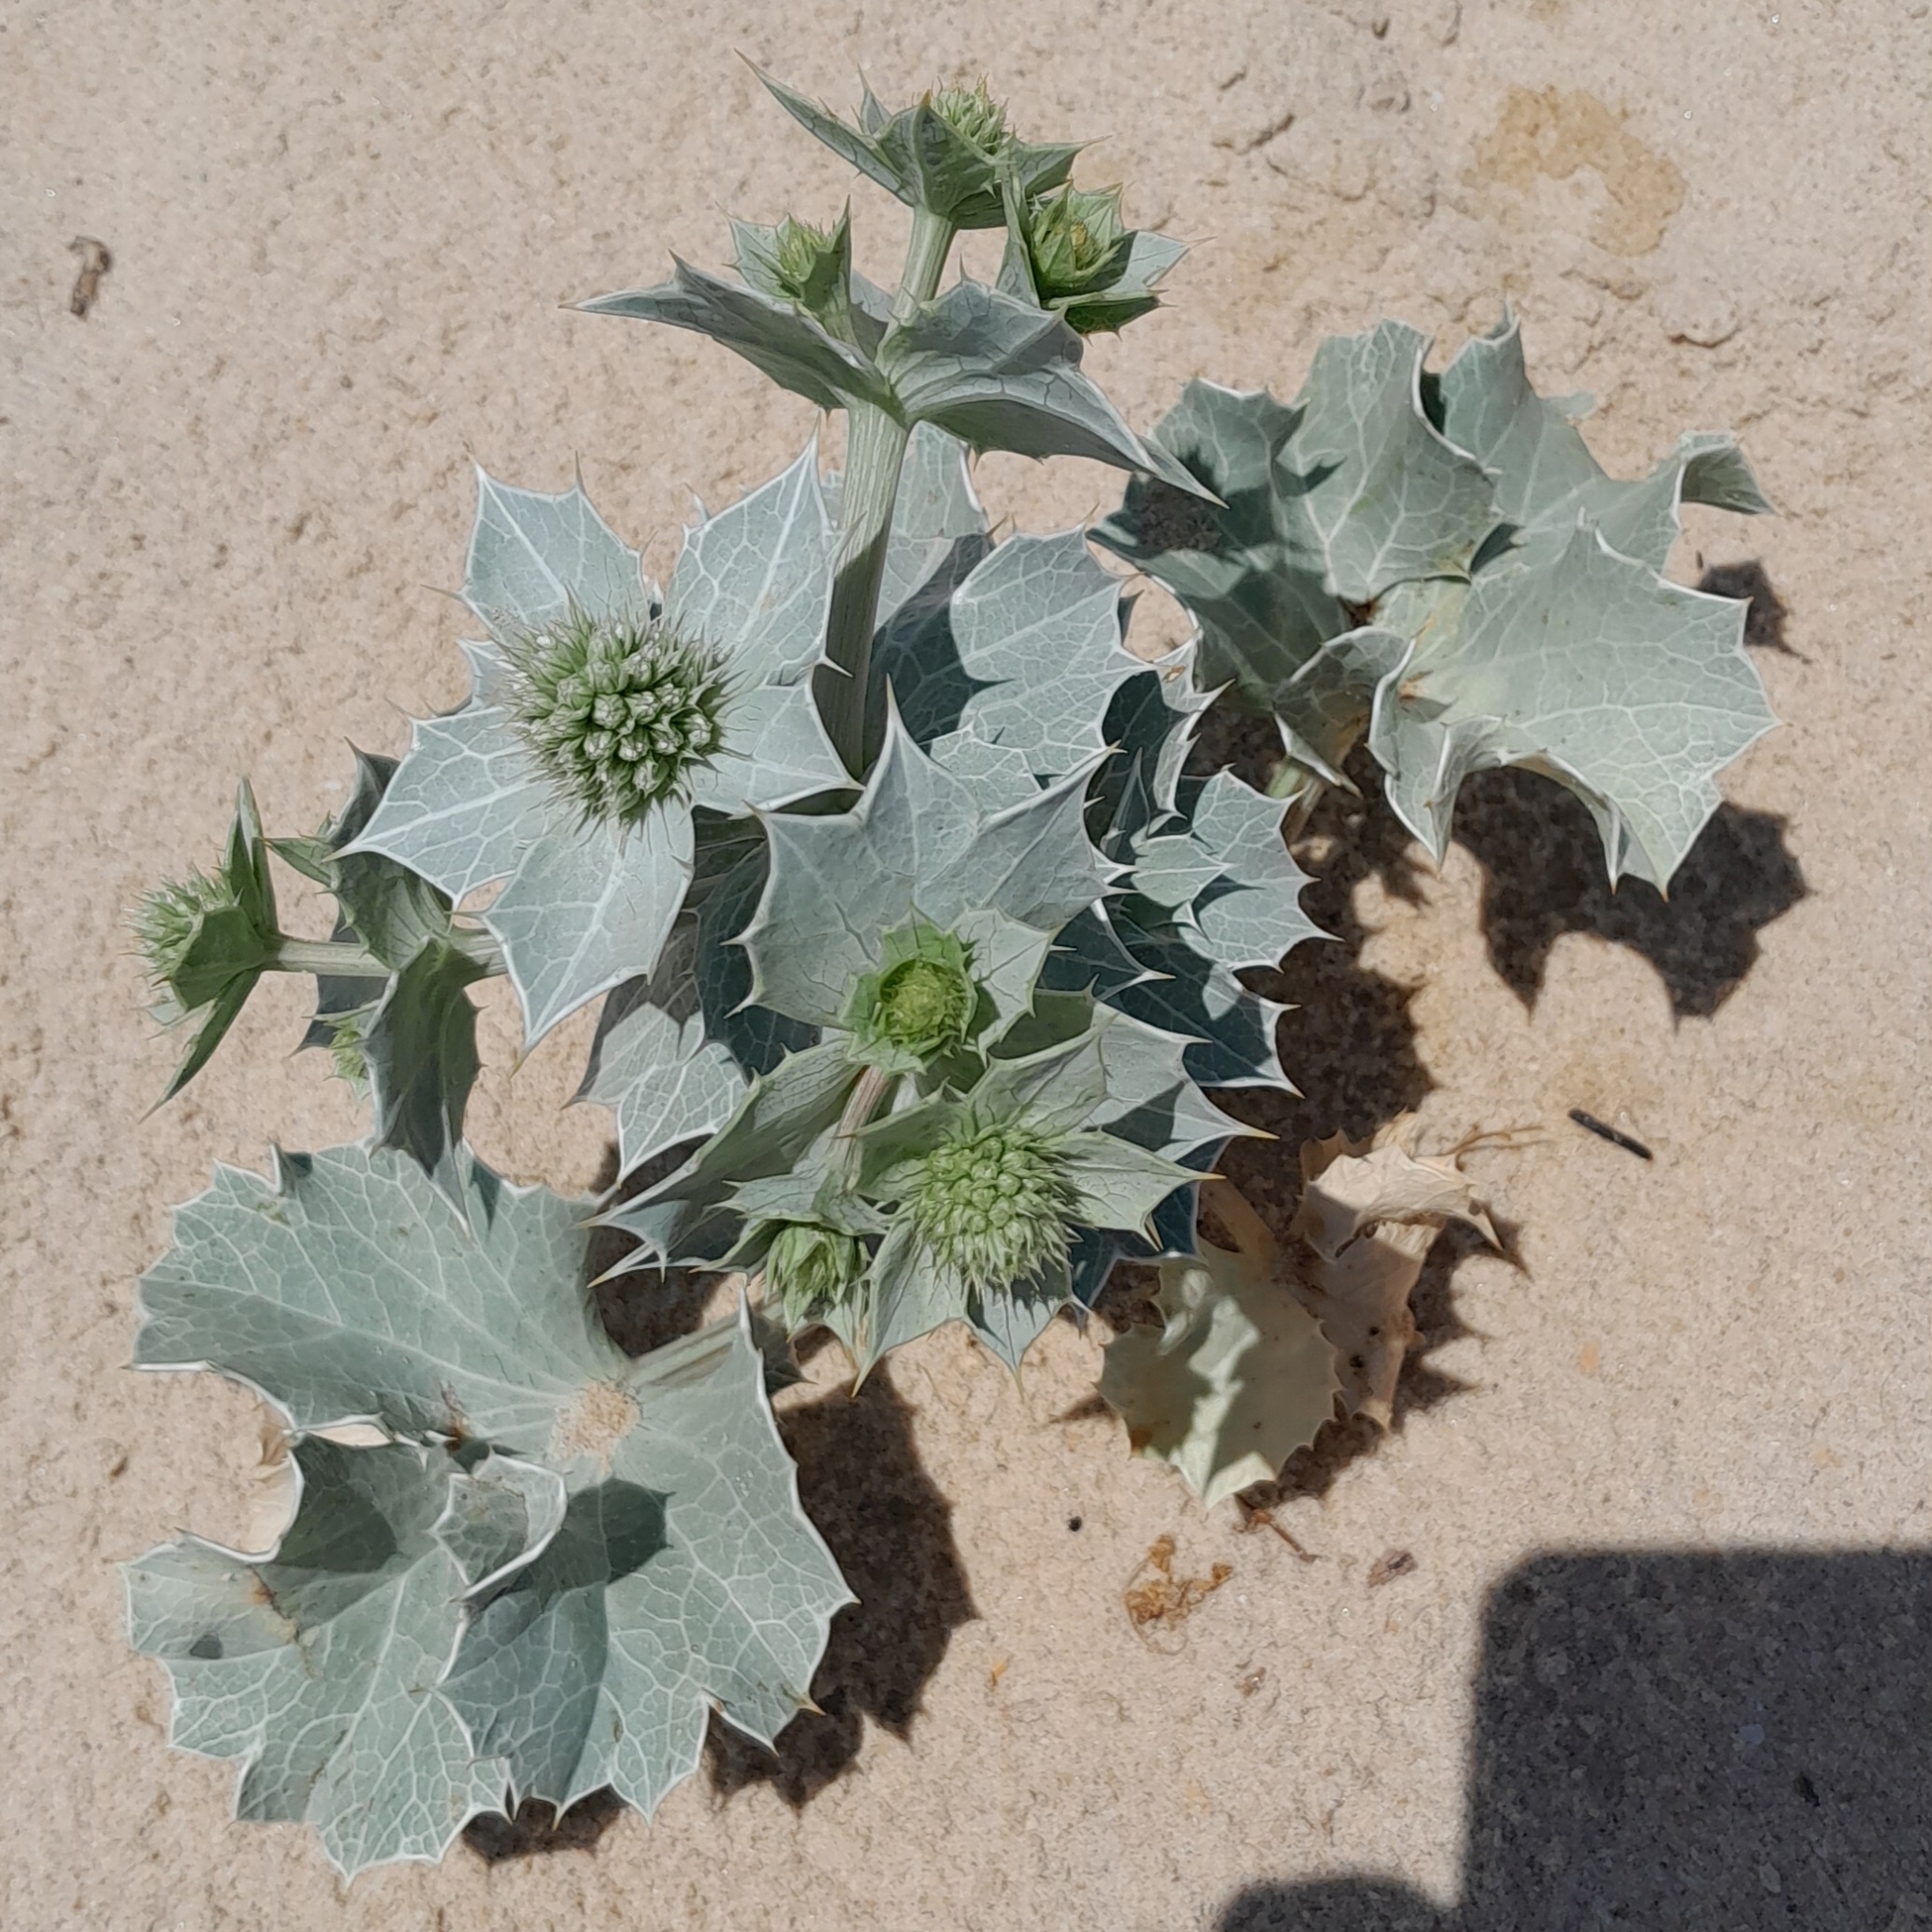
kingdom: Plantae
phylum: Tracheophyta
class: Magnoliopsida
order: Apiales
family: Apiaceae
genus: Eryngium
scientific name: Eryngium maritimum
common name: Sea-holly
